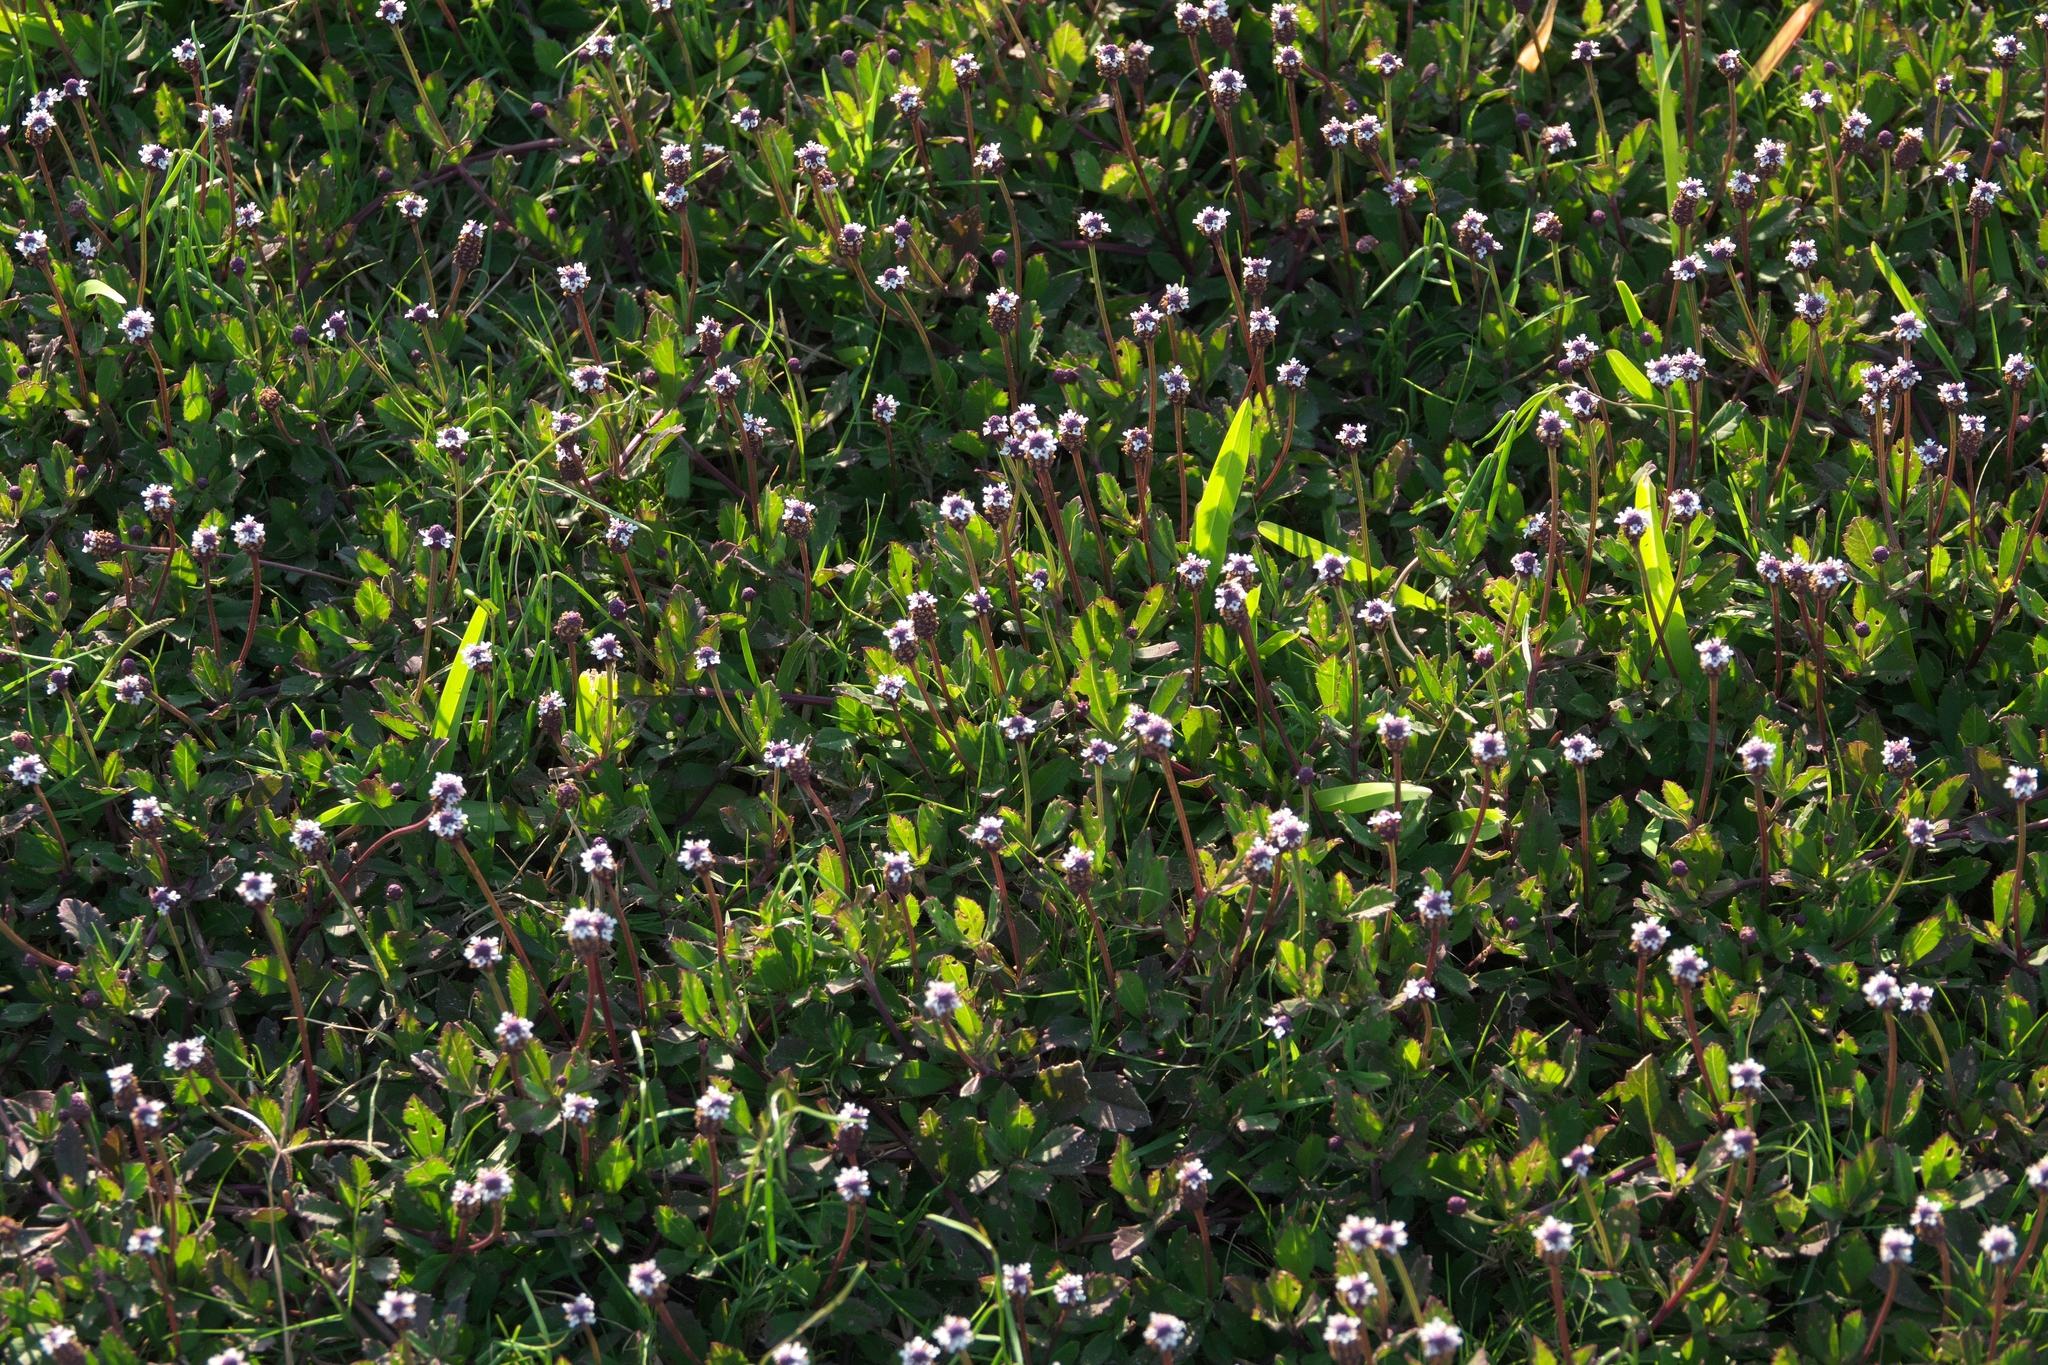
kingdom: Plantae
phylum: Tracheophyta
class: Magnoliopsida
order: Lamiales
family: Verbenaceae
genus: Phyla
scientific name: Phyla nodiflora
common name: Frogfruit
